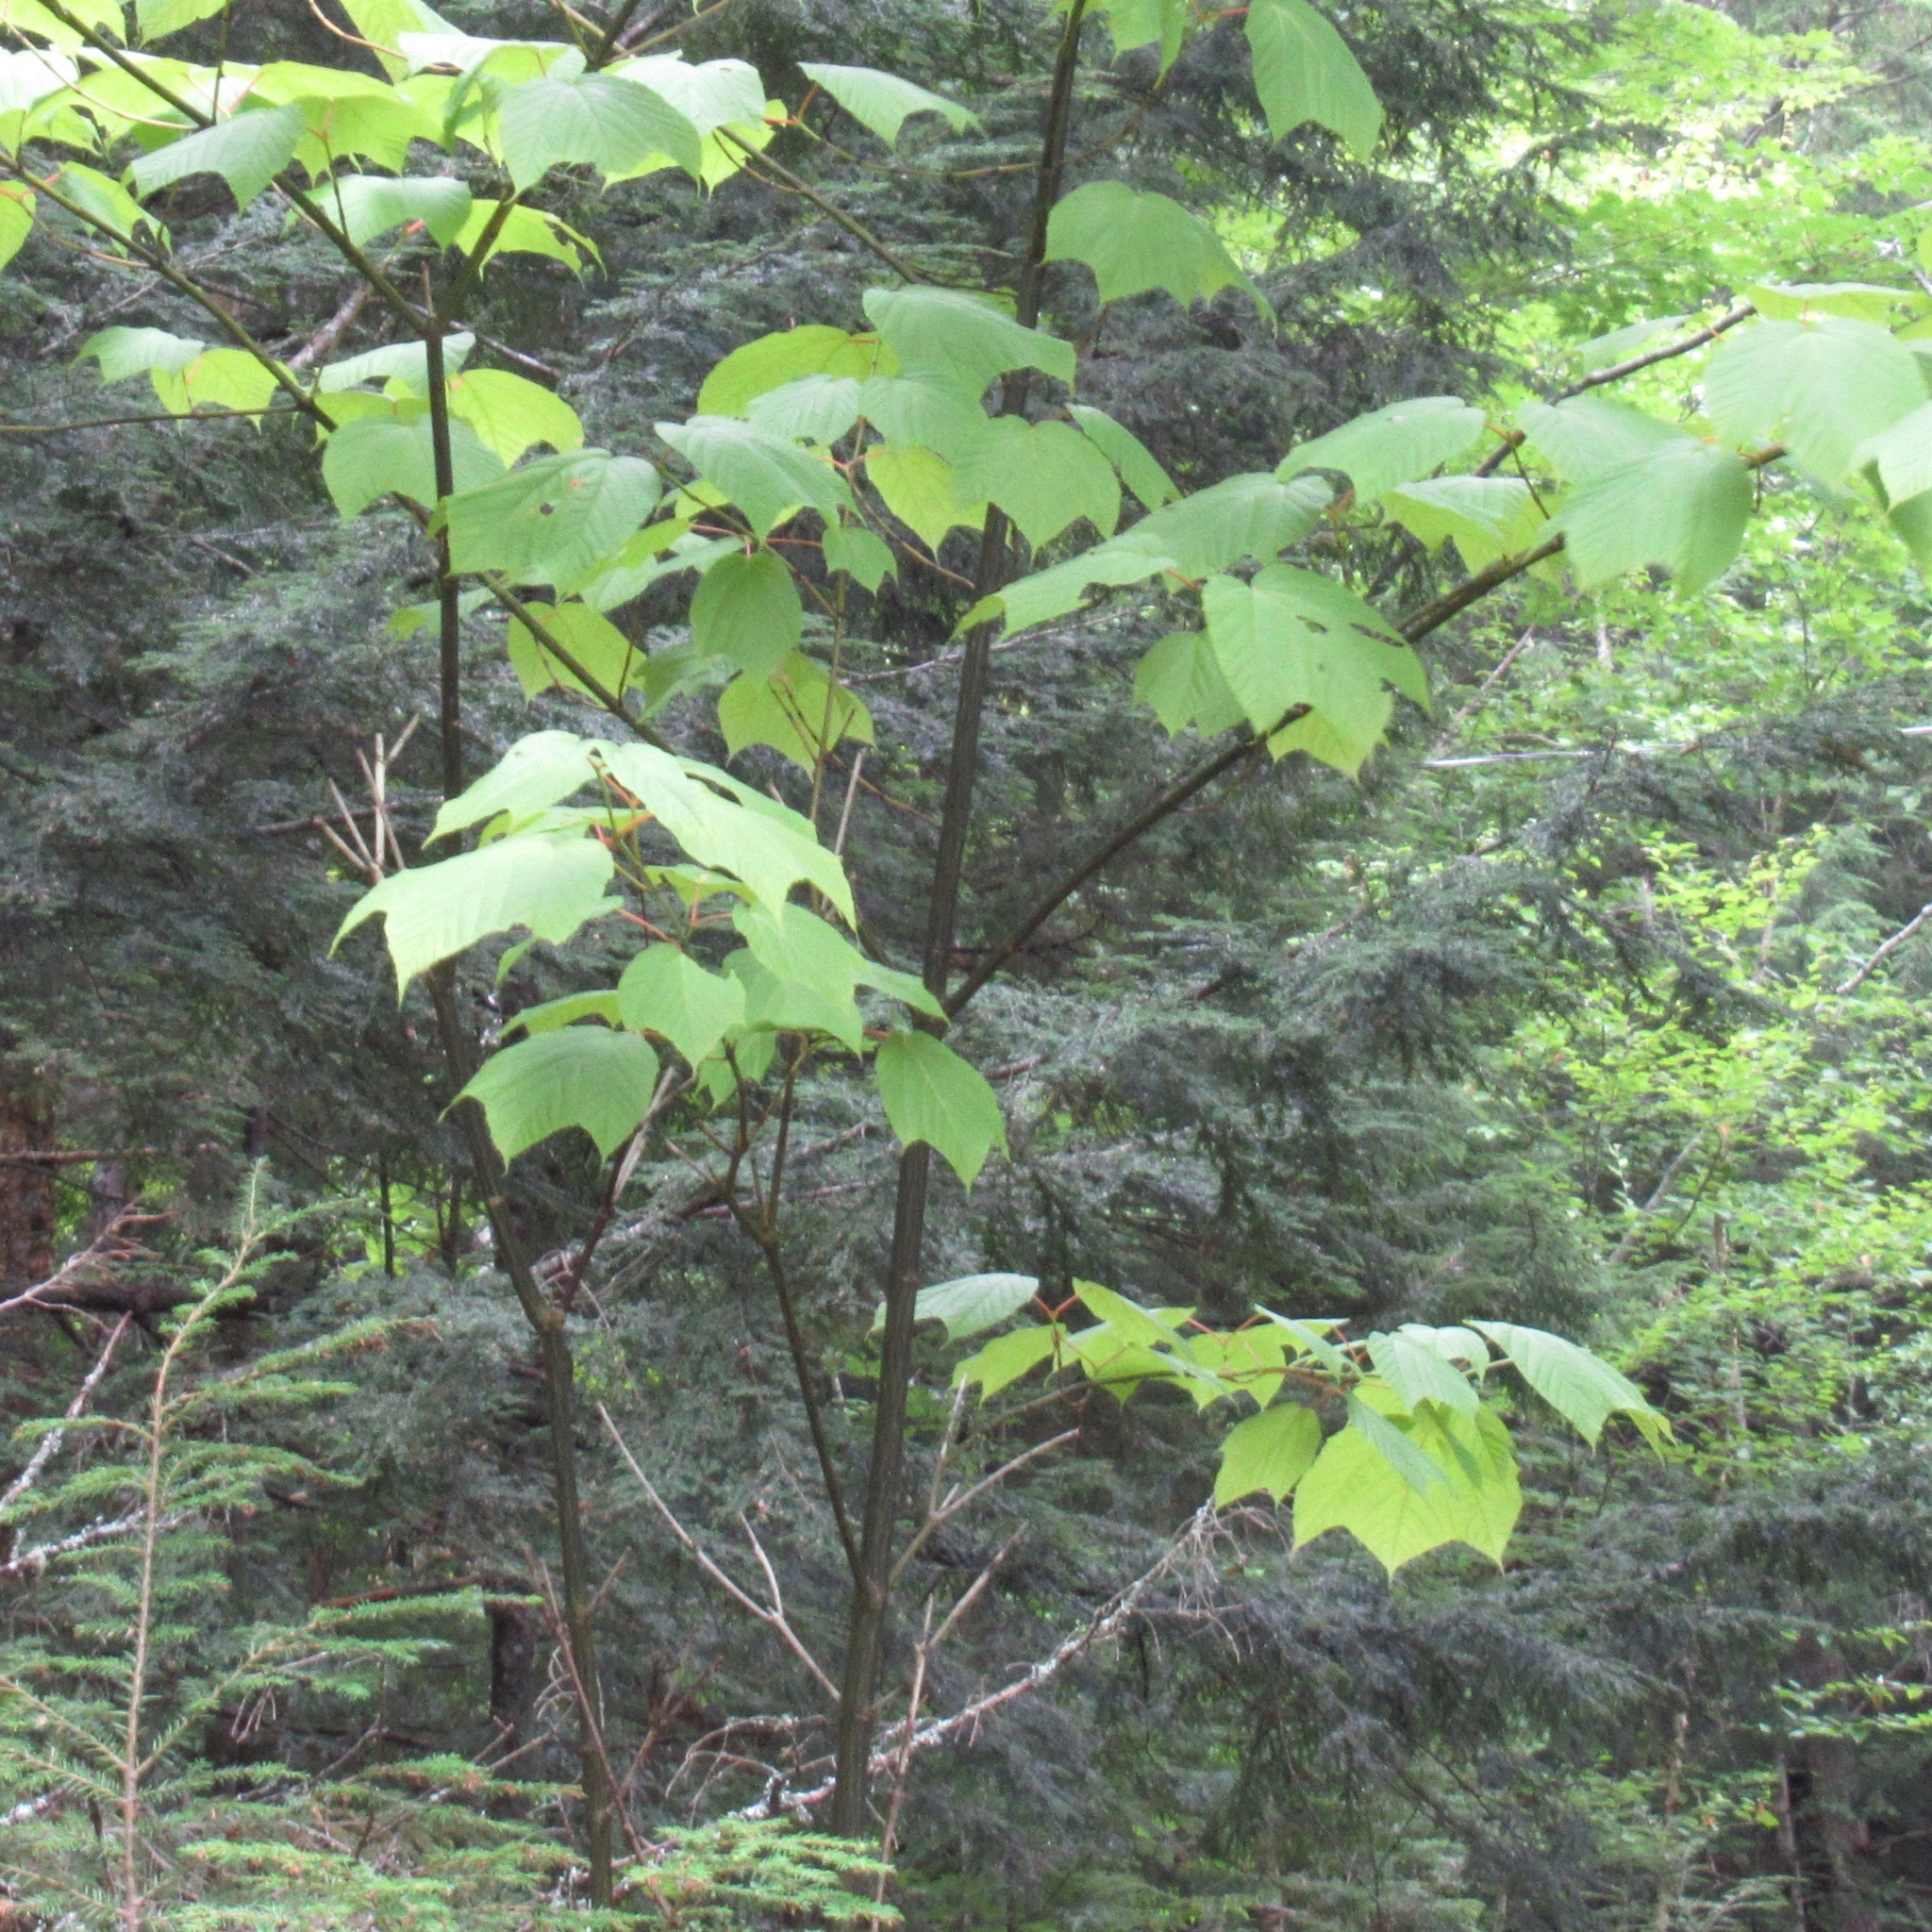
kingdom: Plantae
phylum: Tracheophyta
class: Magnoliopsida
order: Sapindales
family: Sapindaceae
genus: Acer
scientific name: Acer pensylvanicum
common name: Moosewood
